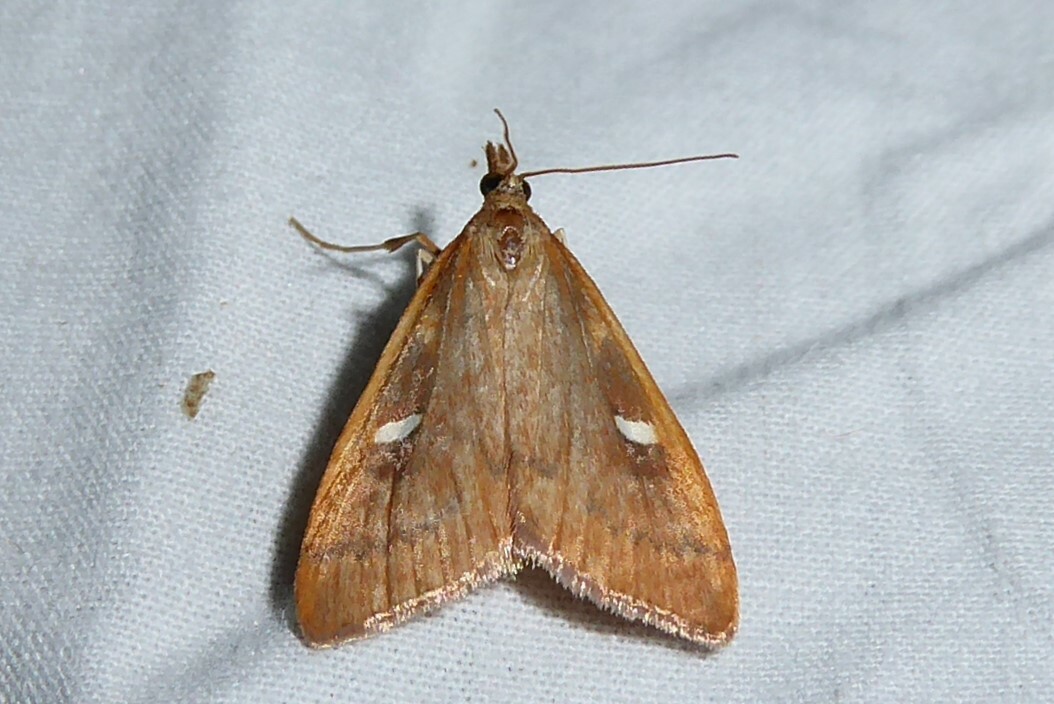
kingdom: Animalia
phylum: Arthropoda
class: Insecta
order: Lepidoptera
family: Crambidae
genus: Udea
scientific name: Udea notata
